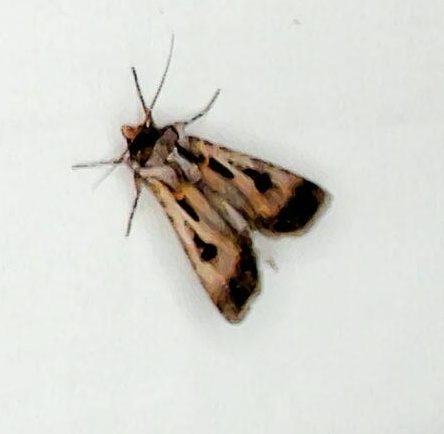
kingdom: Animalia
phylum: Arthropoda
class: Insecta
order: Lepidoptera
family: Noctuidae
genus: Agrotis
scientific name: Agrotis munda
